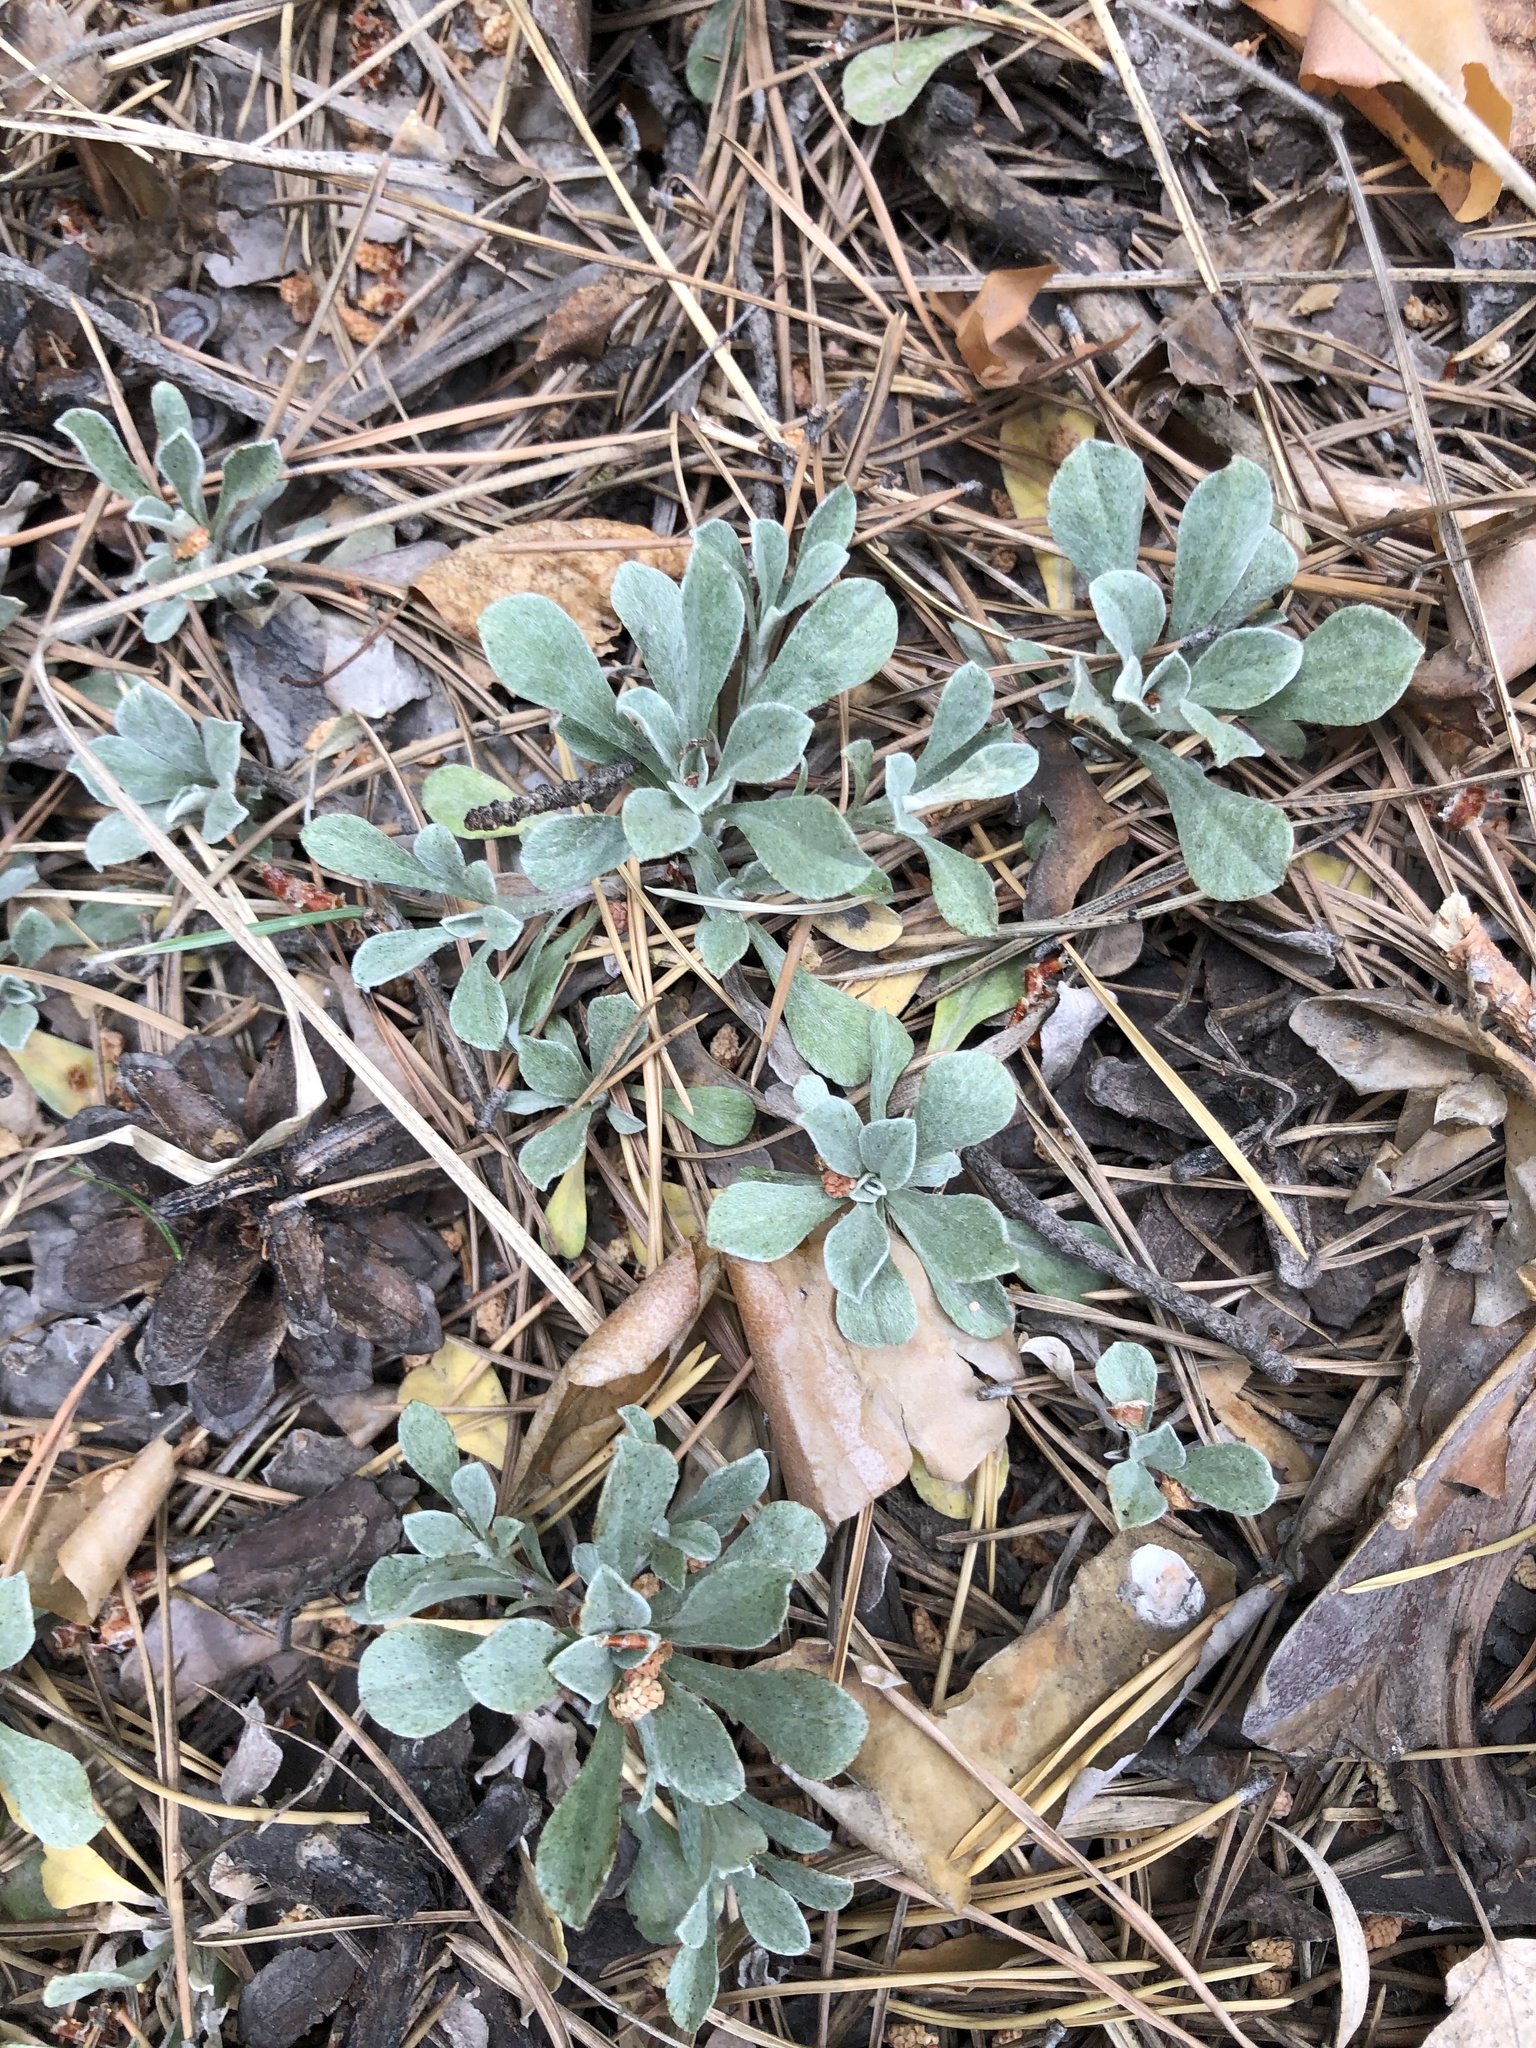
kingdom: Plantae
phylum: Tracheophyta
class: Magnoliopsida
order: Asterales
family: Asteraceae
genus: Antennaria
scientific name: Antennaria dioica
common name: Mountain everlasting
